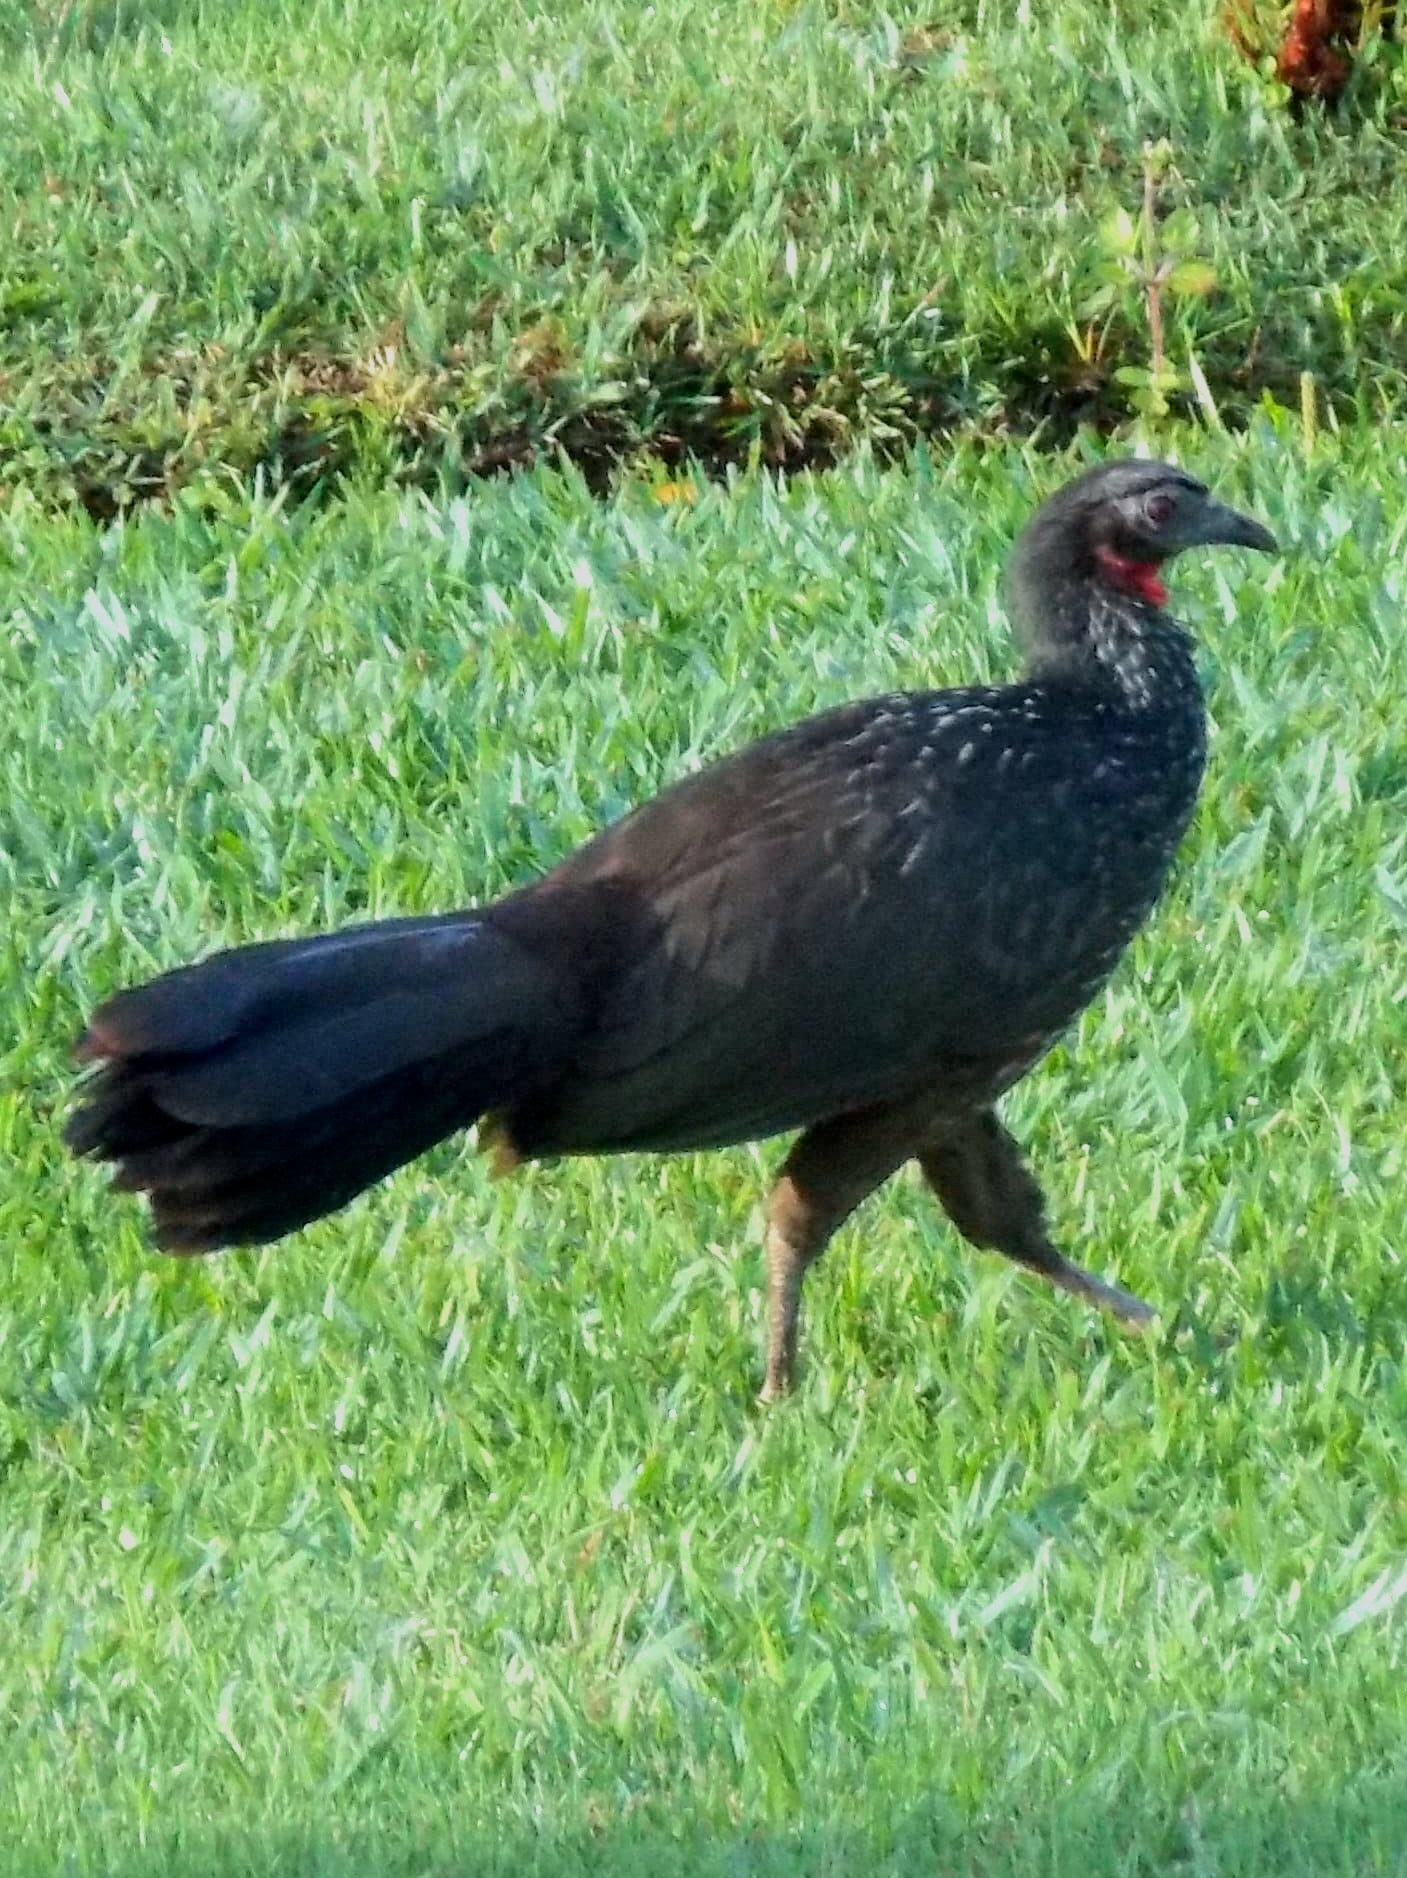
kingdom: Animalia
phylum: Chordata
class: Aves
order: Galliformes
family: Cracidae
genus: Penelope
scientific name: Penelope obscura
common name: Dusky-legged guan
